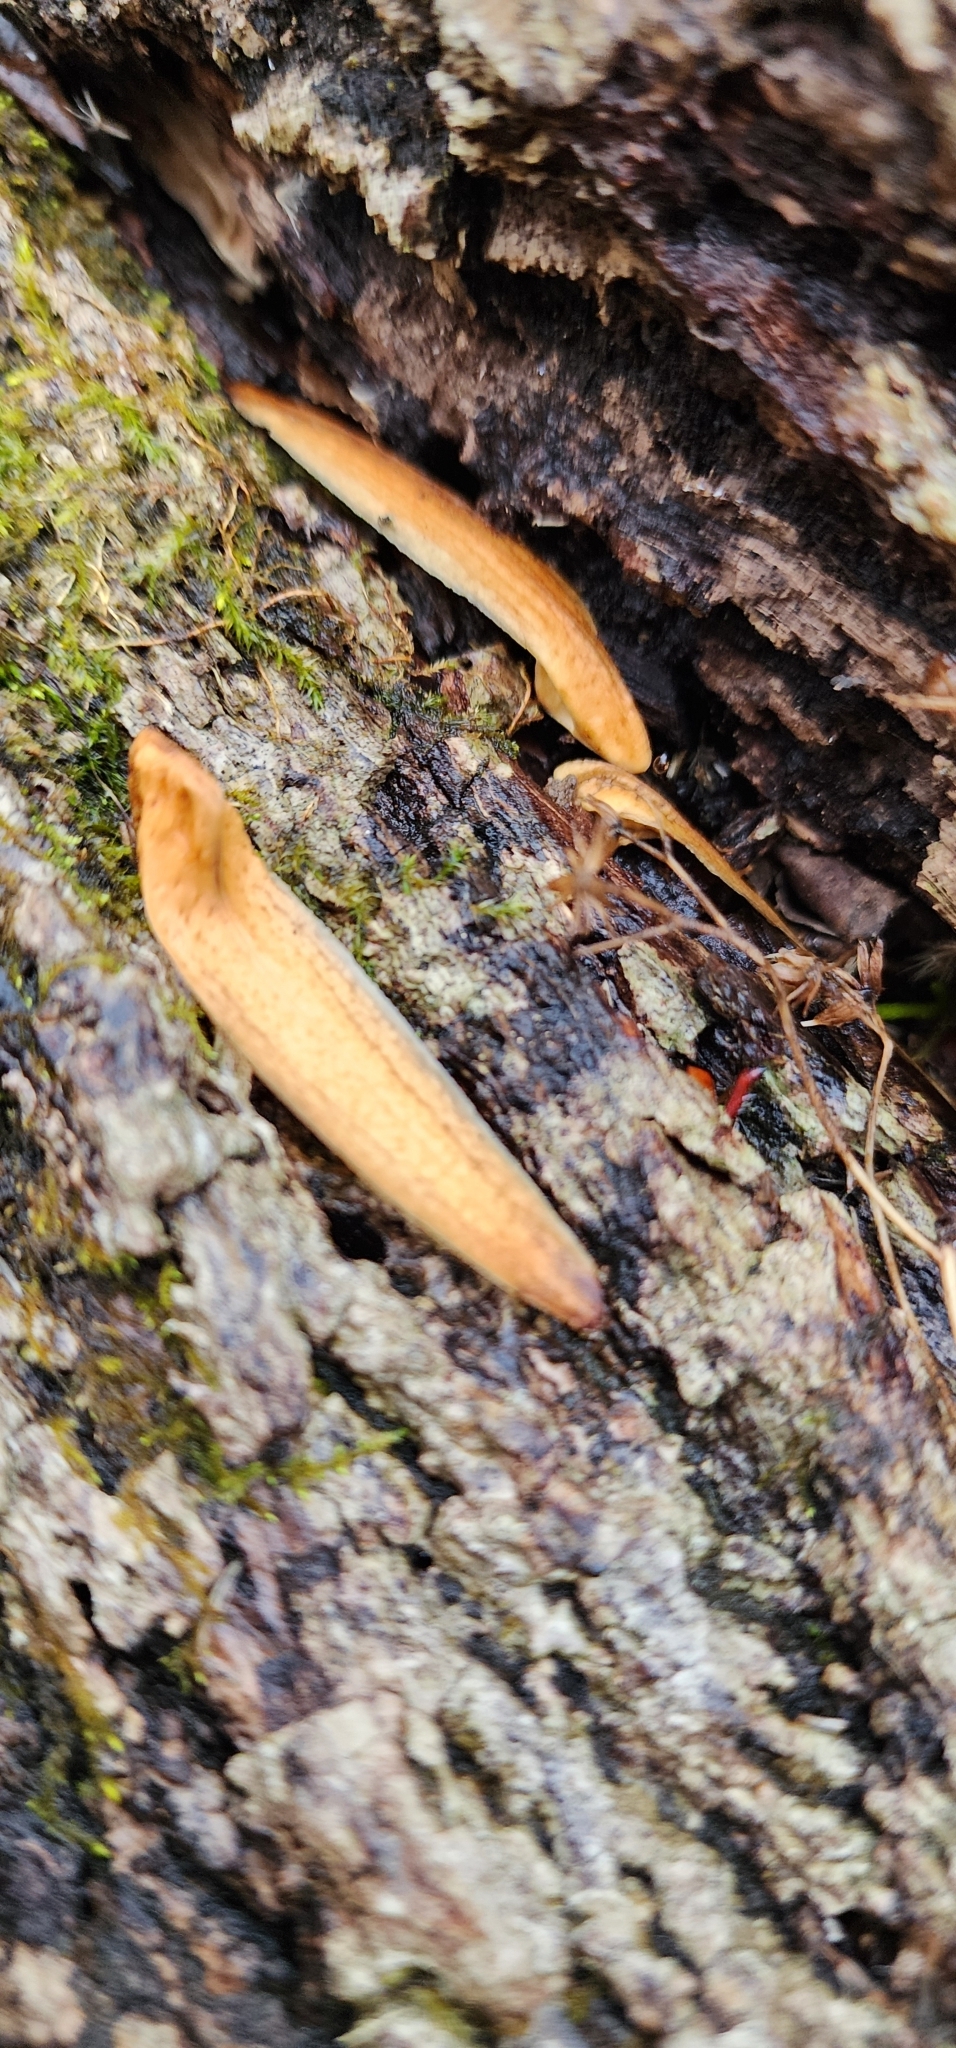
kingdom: Plantae
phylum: Tracheophyta
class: Magnoliopsida
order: Magnoliales
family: Magnoliaceae
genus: Liriodendron
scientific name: Liriodendron tulipifera
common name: Tulip tree
